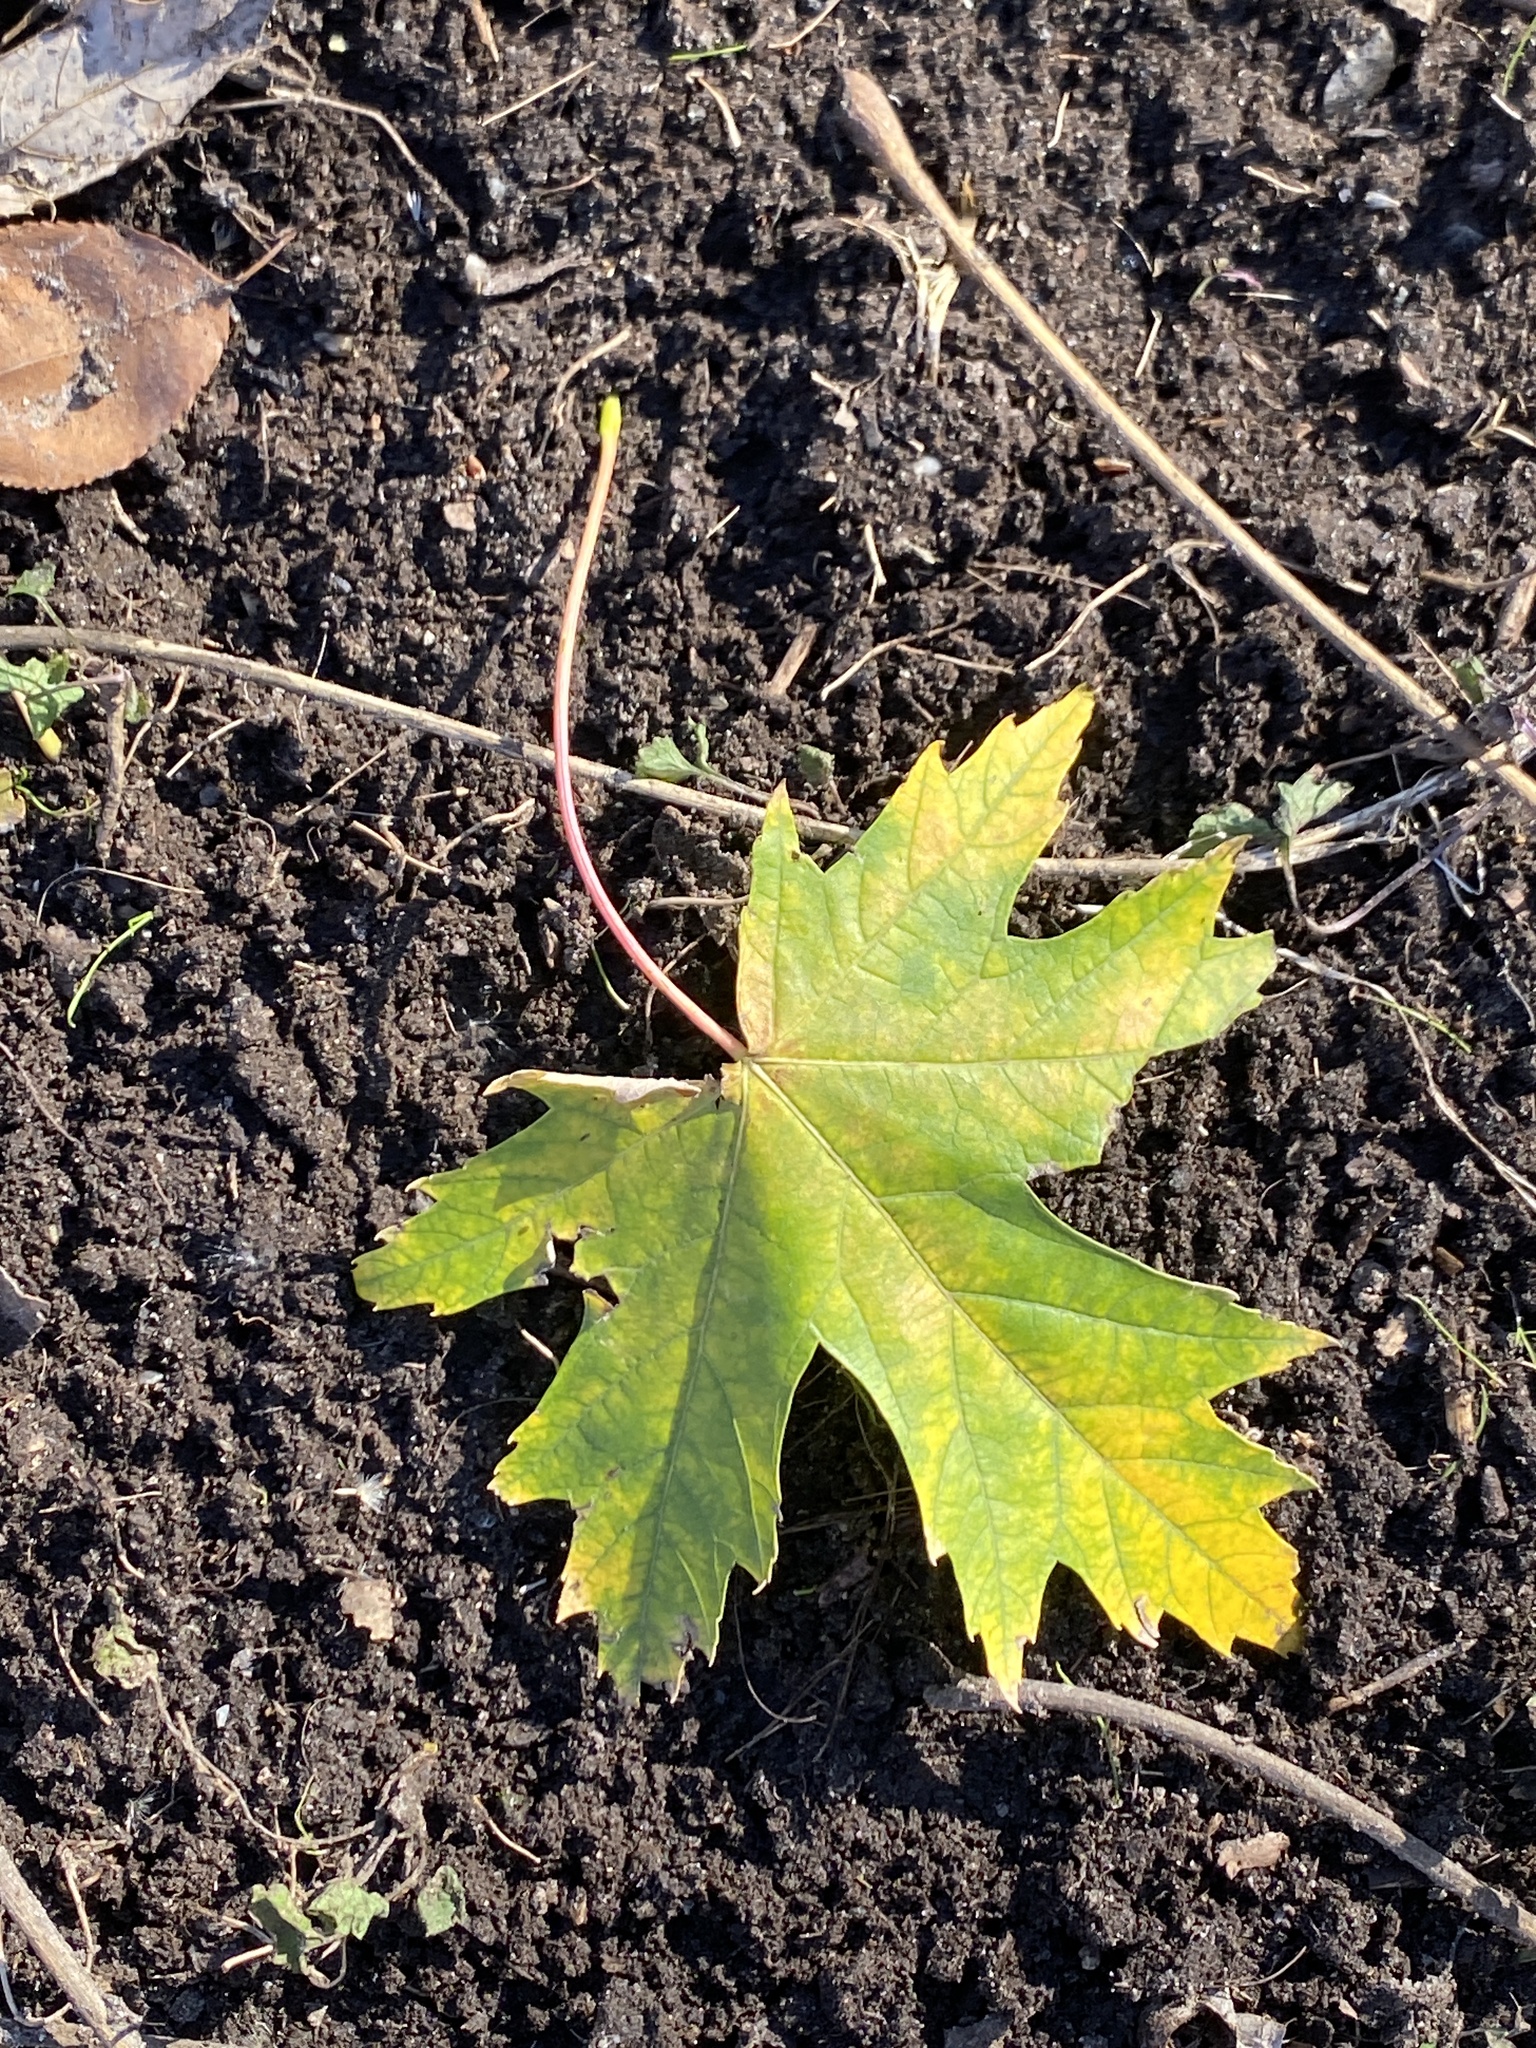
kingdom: Plantae
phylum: Tracheophyta
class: Magnoliopsida
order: Sapindales
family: Sapindaceae
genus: Acer
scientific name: Acer saccharinum
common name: Silver maple
